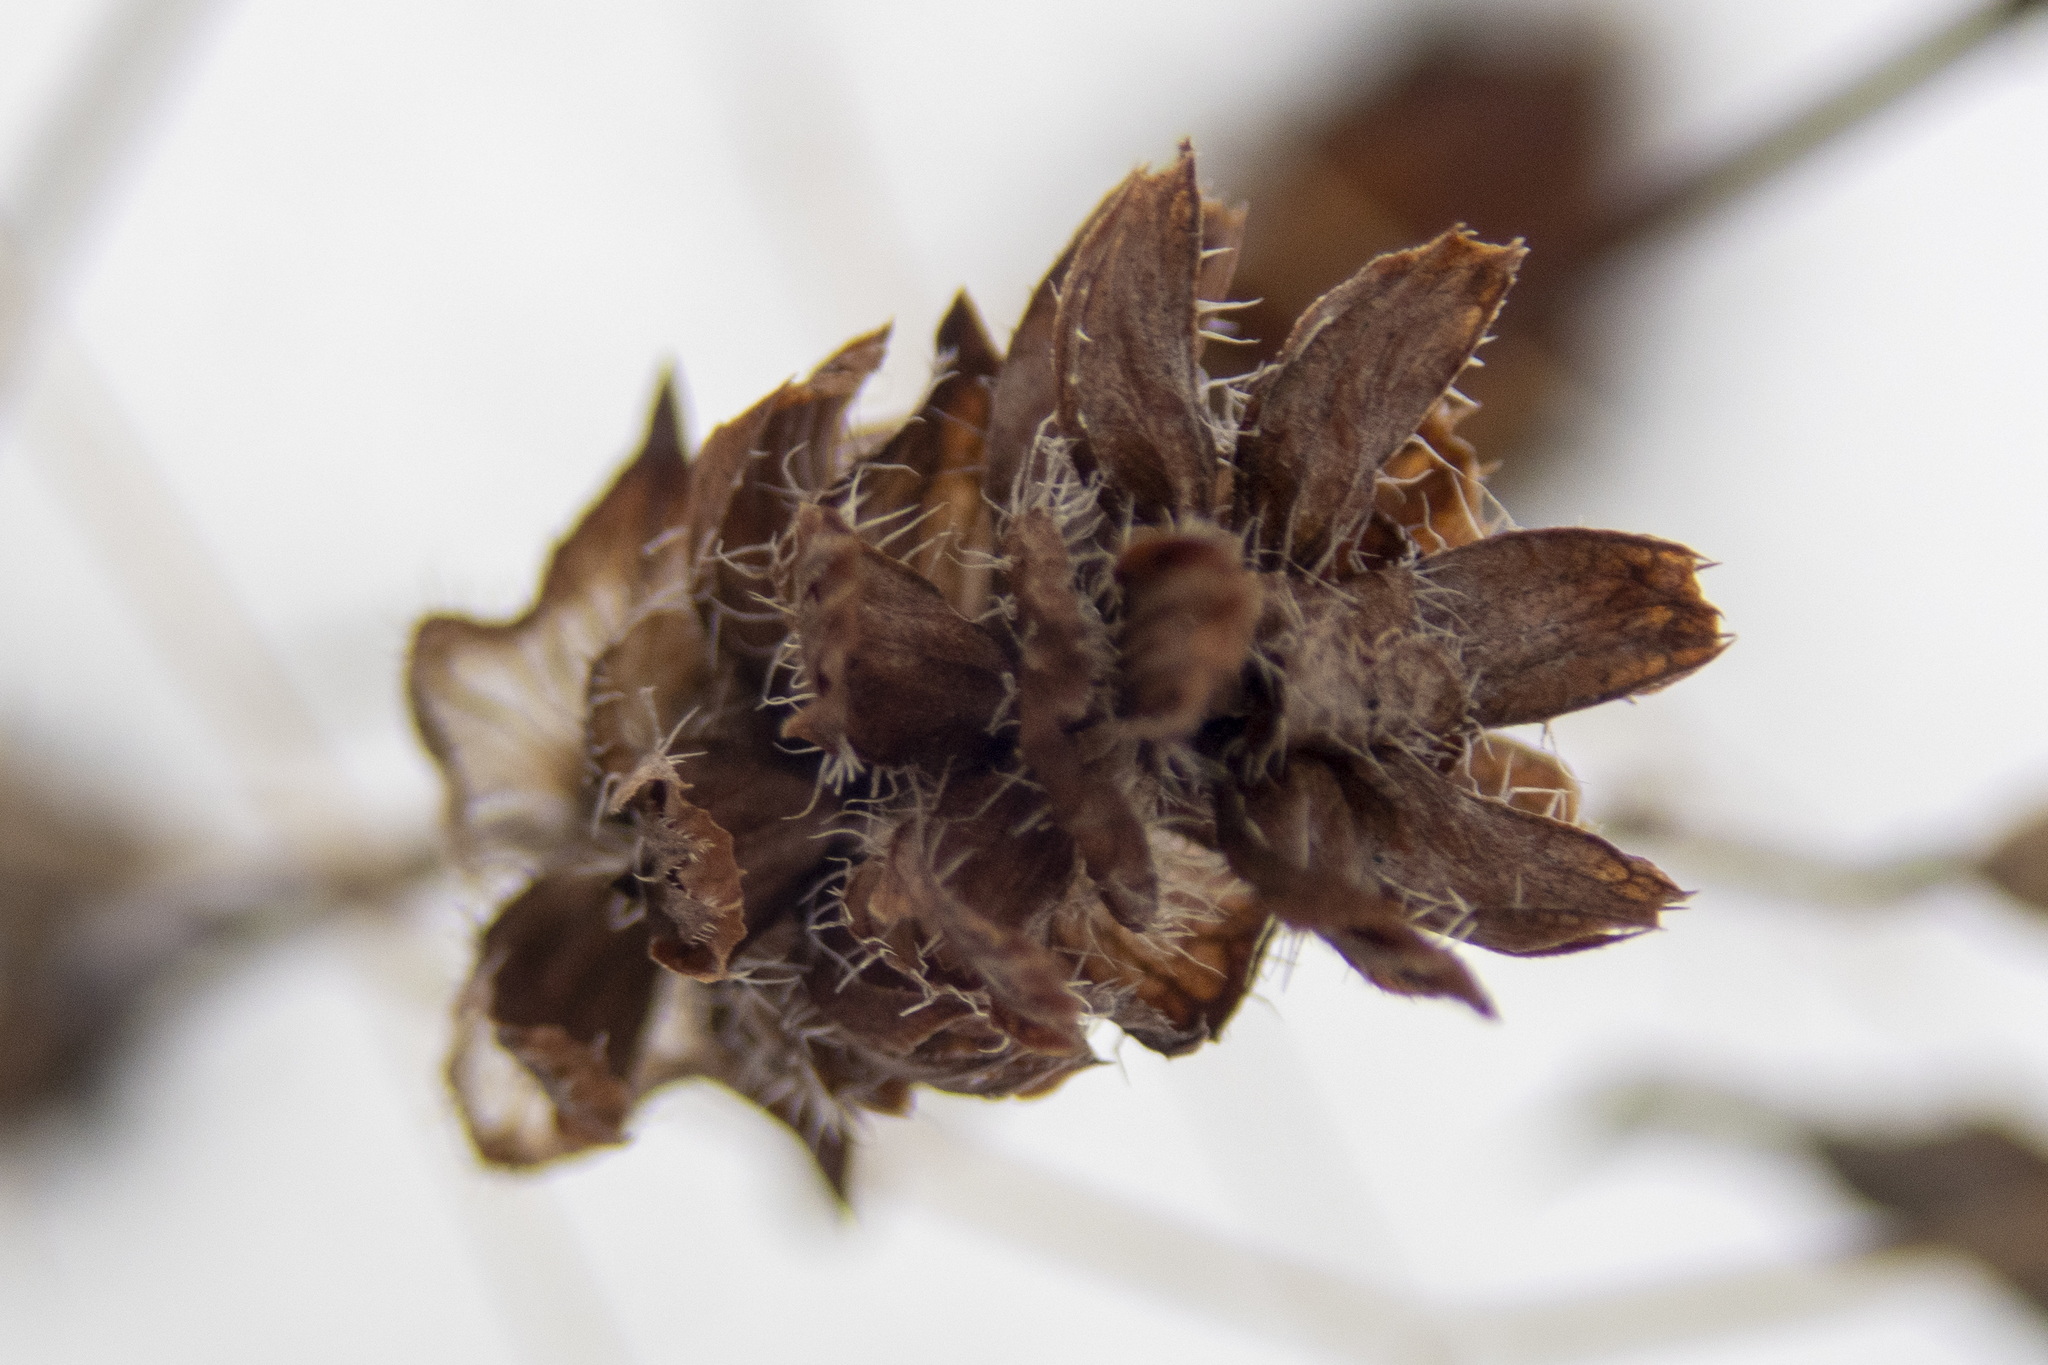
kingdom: Plantae
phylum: Tracheophyta
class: Magnoliopsida
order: Lamiales
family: Lamiaceae
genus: Prunella
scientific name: Prunella vulgaris
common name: Heal-all
